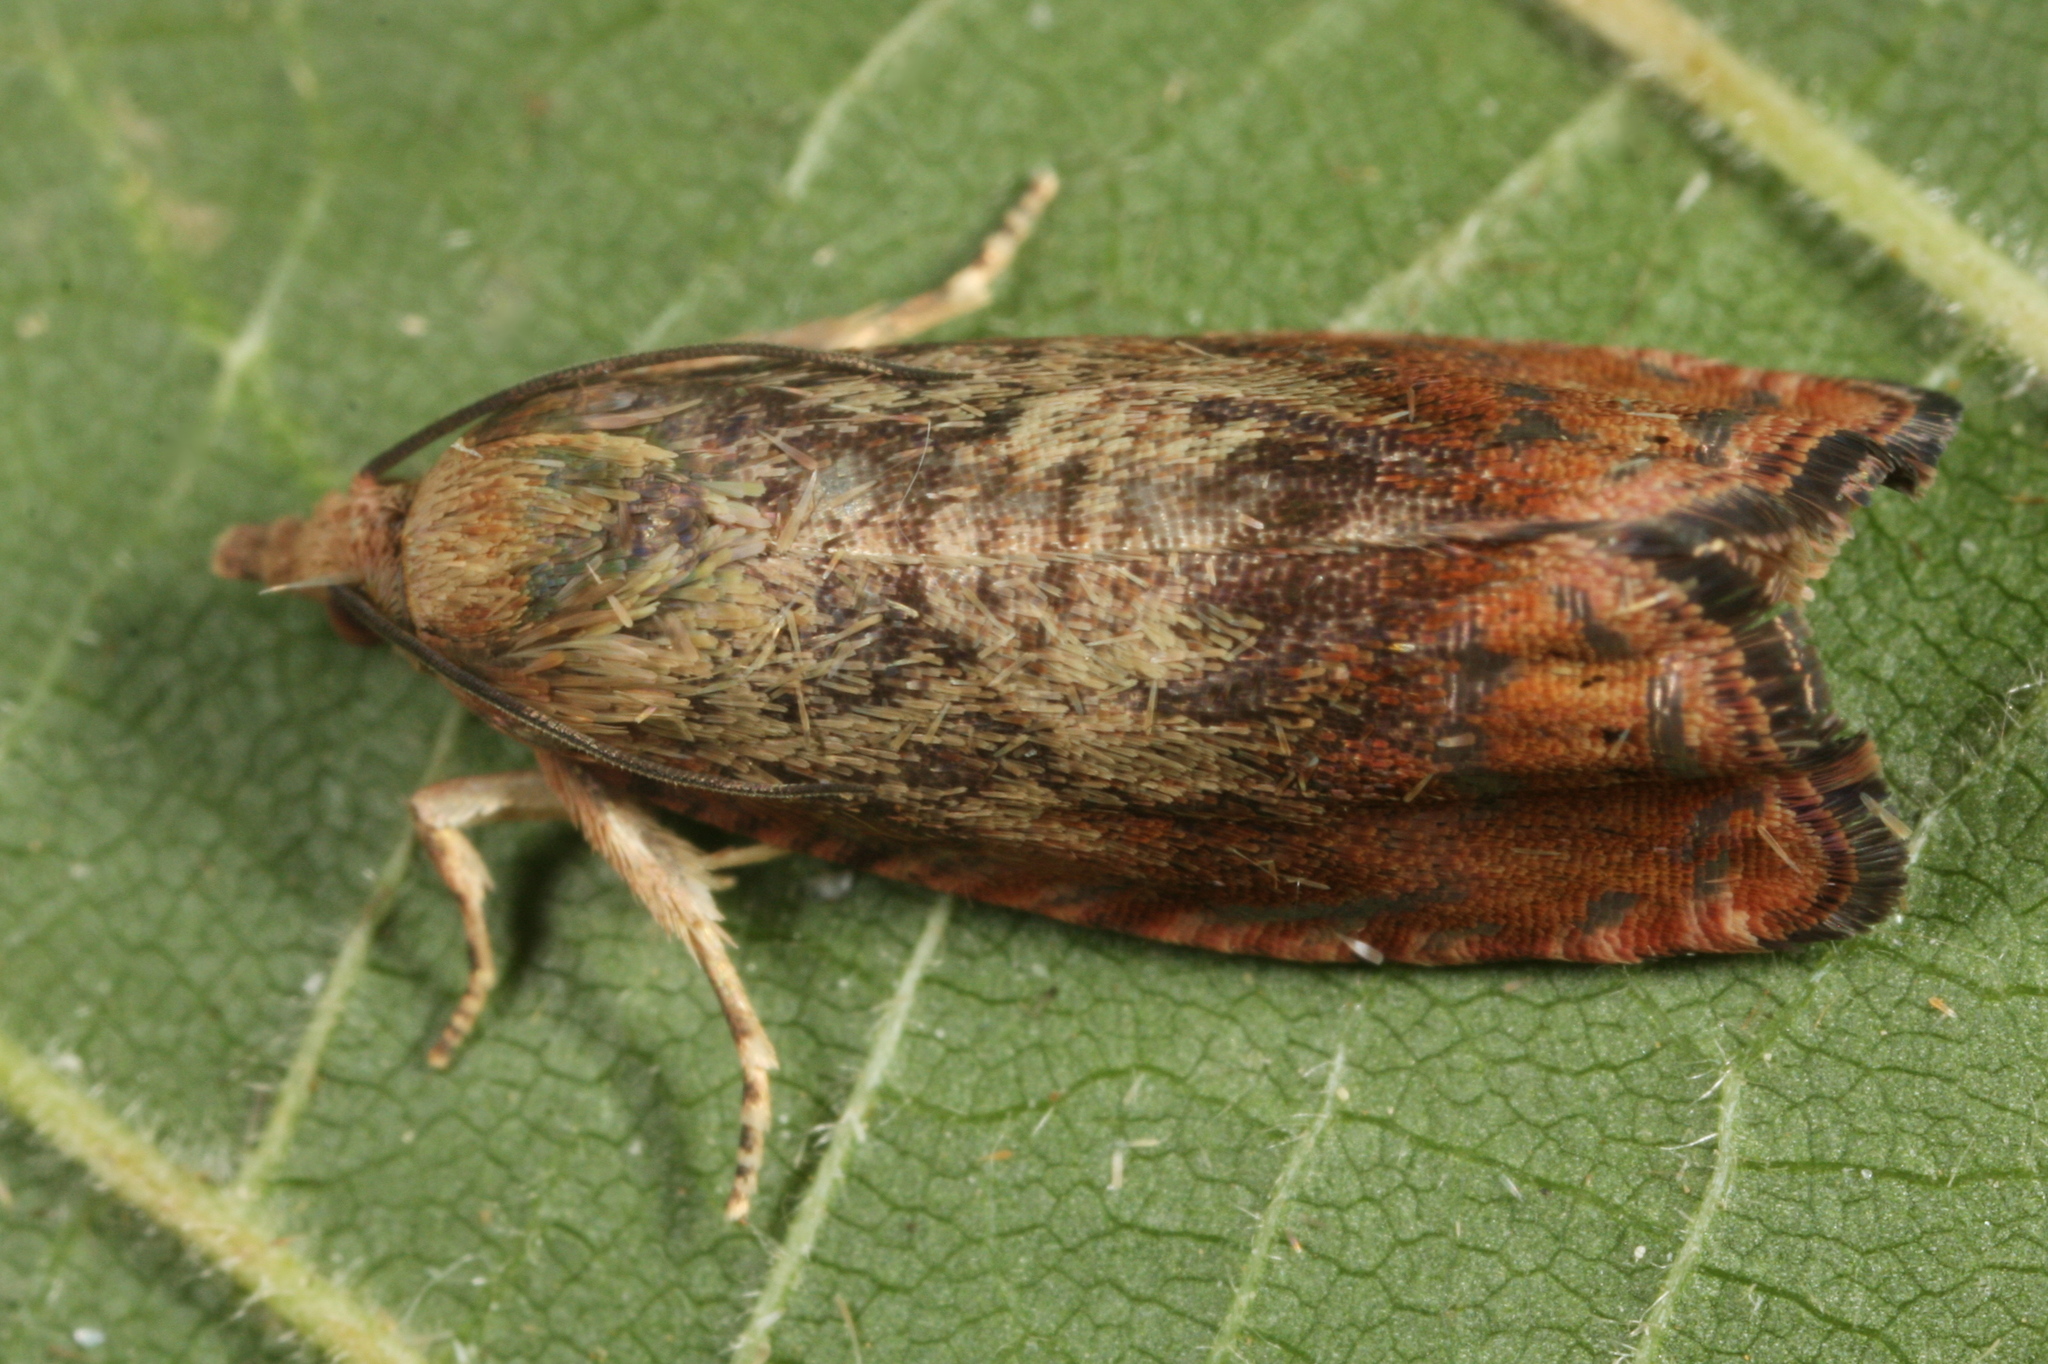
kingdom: Animalia
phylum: Arthropoda
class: Insecta
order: Lepidoptera
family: Tortricidae
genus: Cydia
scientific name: Cydia amplana
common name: Vagrant piercer
